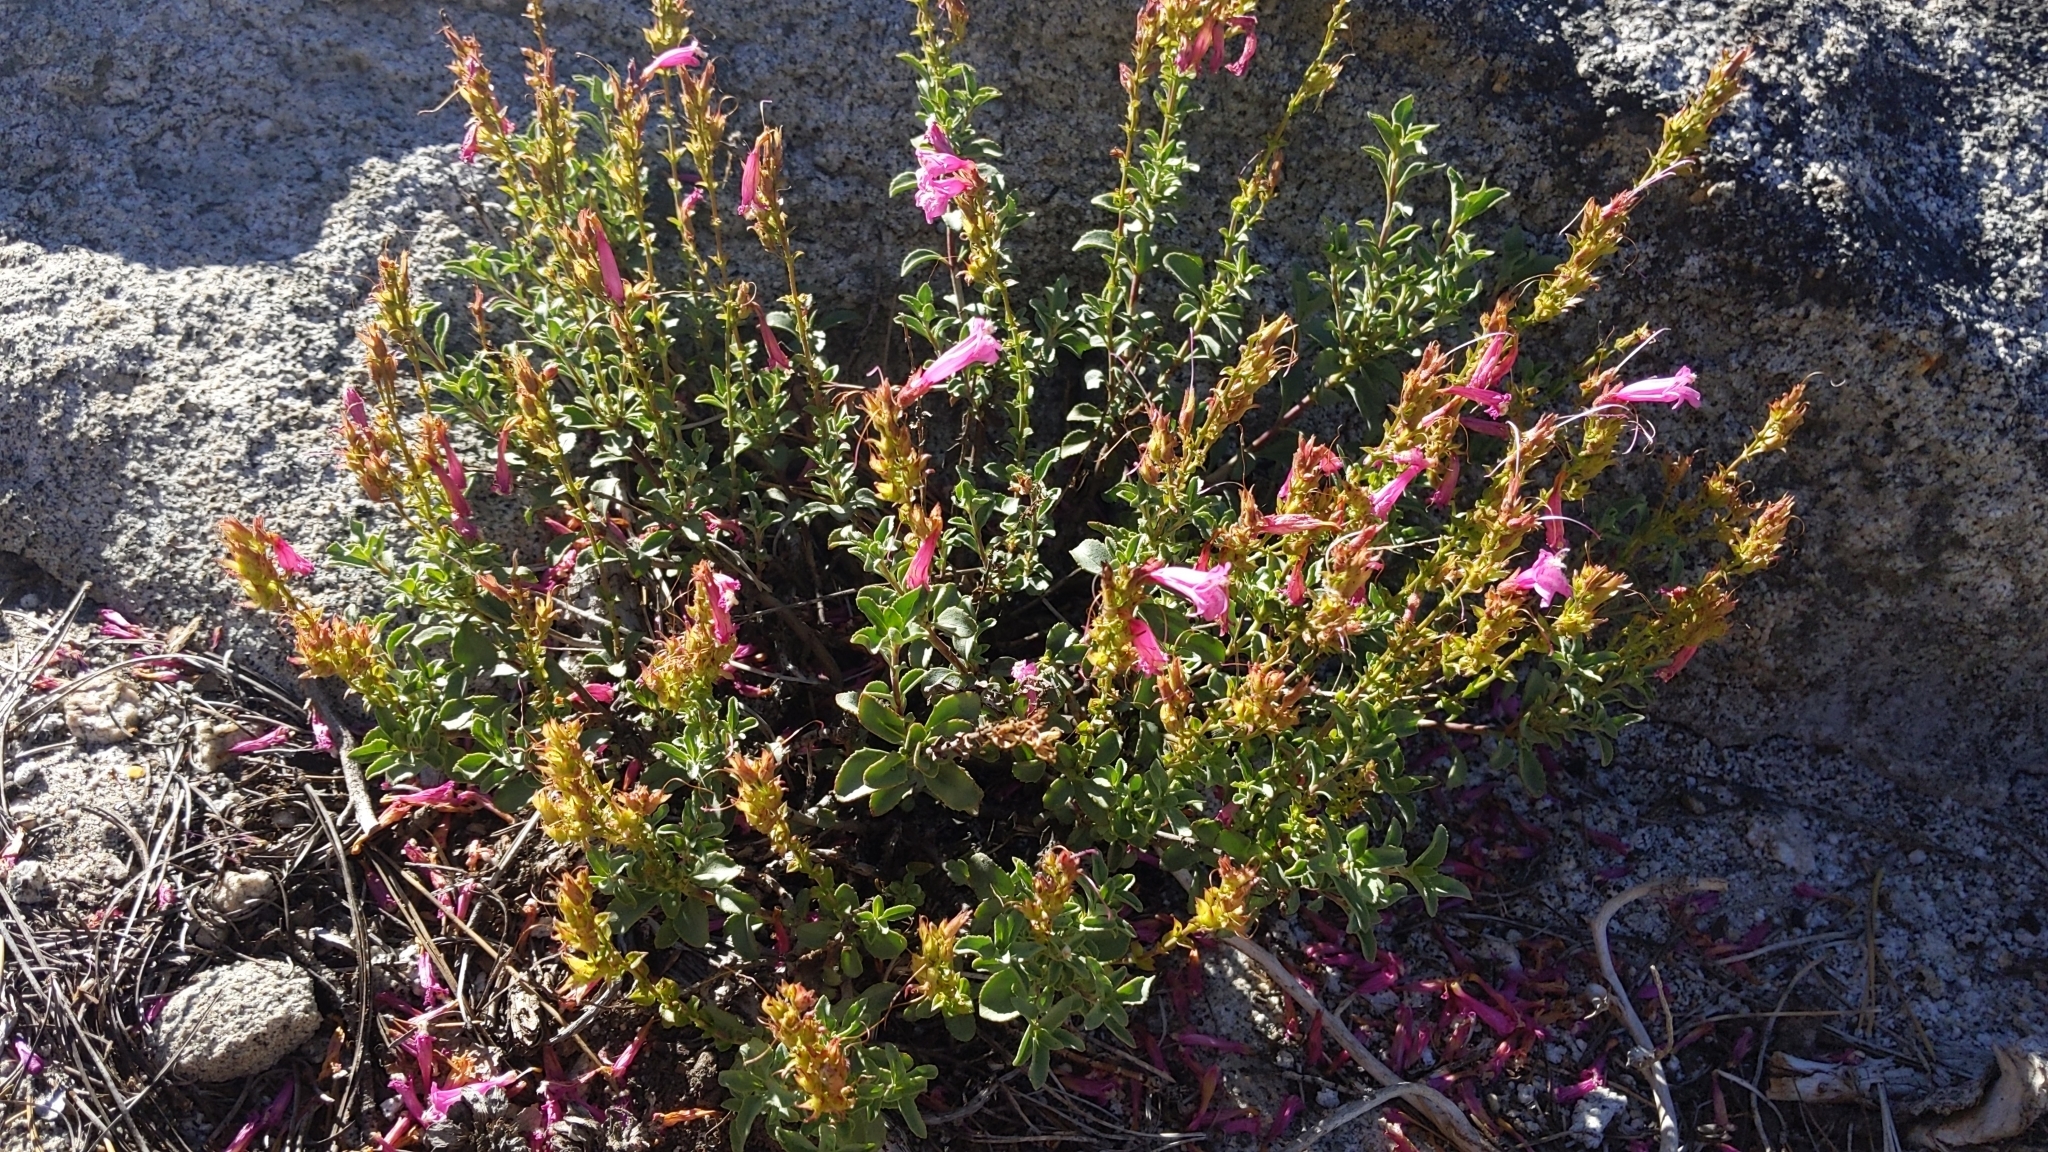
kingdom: Plantae
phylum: Tracheophyta
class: Magnoliopsida
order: Lamiales
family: Plantaginaceae
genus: Penstemon
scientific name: Penstemon newberryi
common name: Mountain-pride
